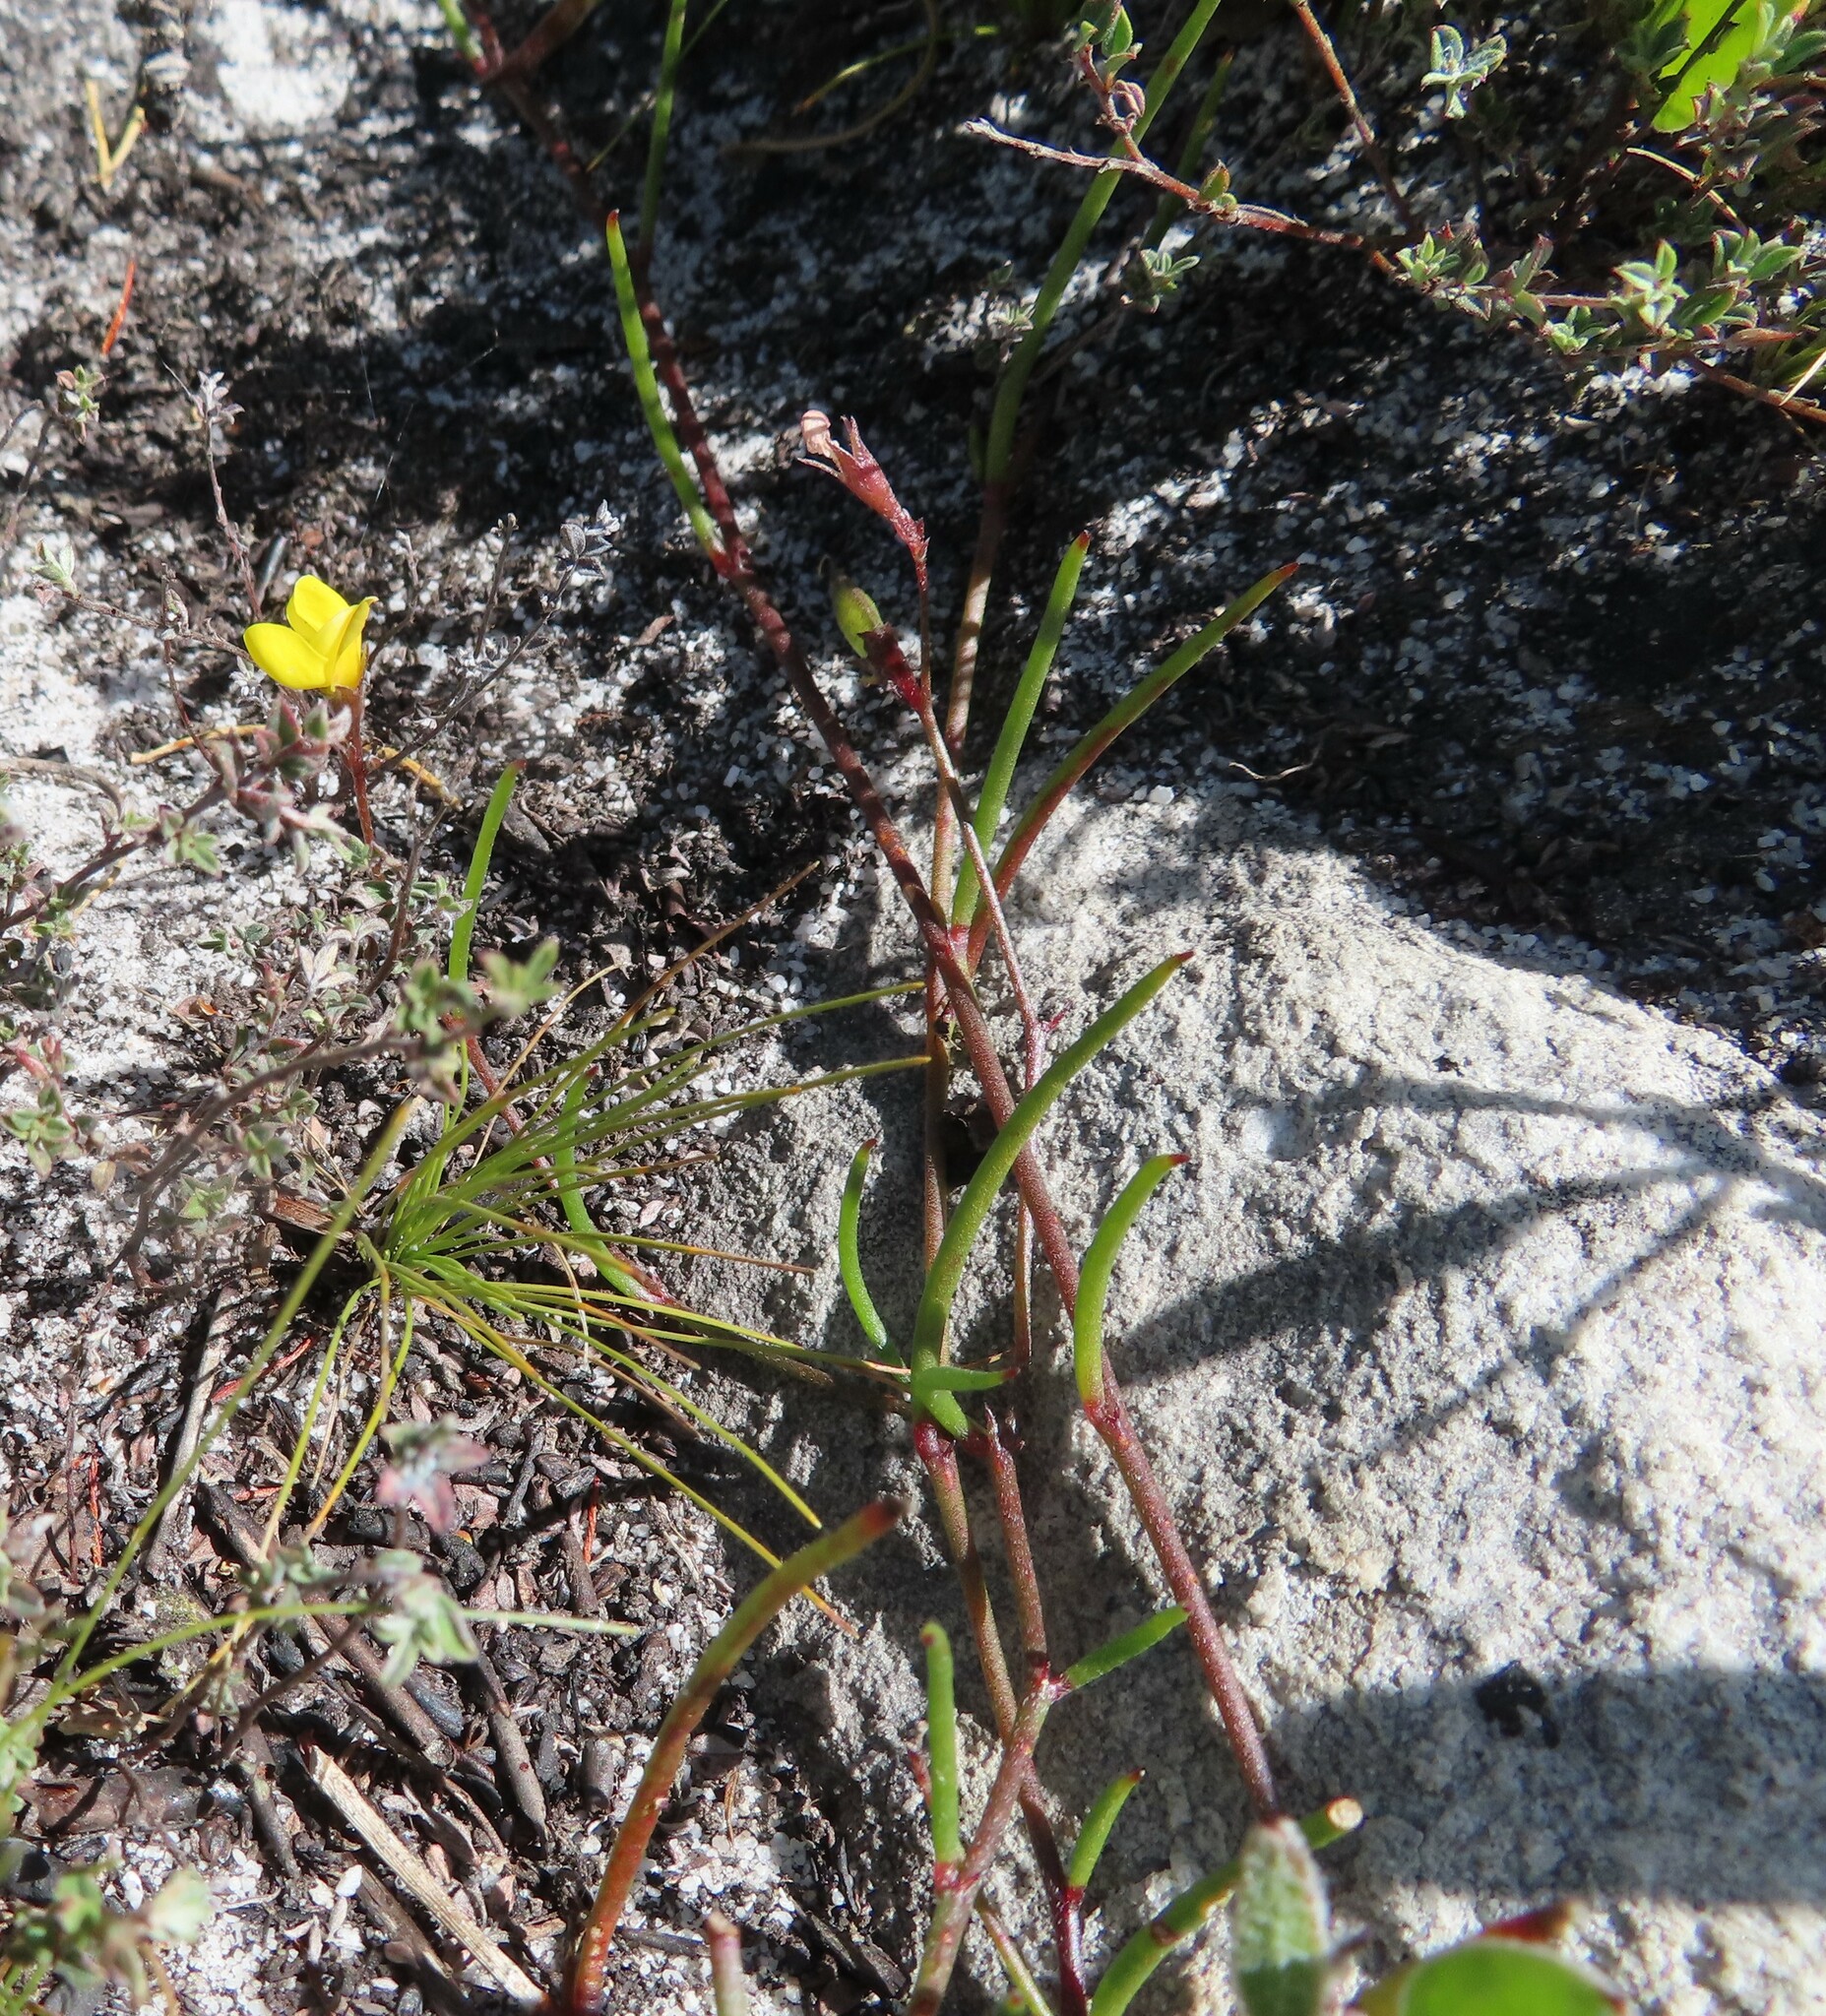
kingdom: Plantae
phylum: Tracheophyta
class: Magnoliopsida
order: Fabales
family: Fabaceae
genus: Lebeckia
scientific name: Lebeckia wrightii
